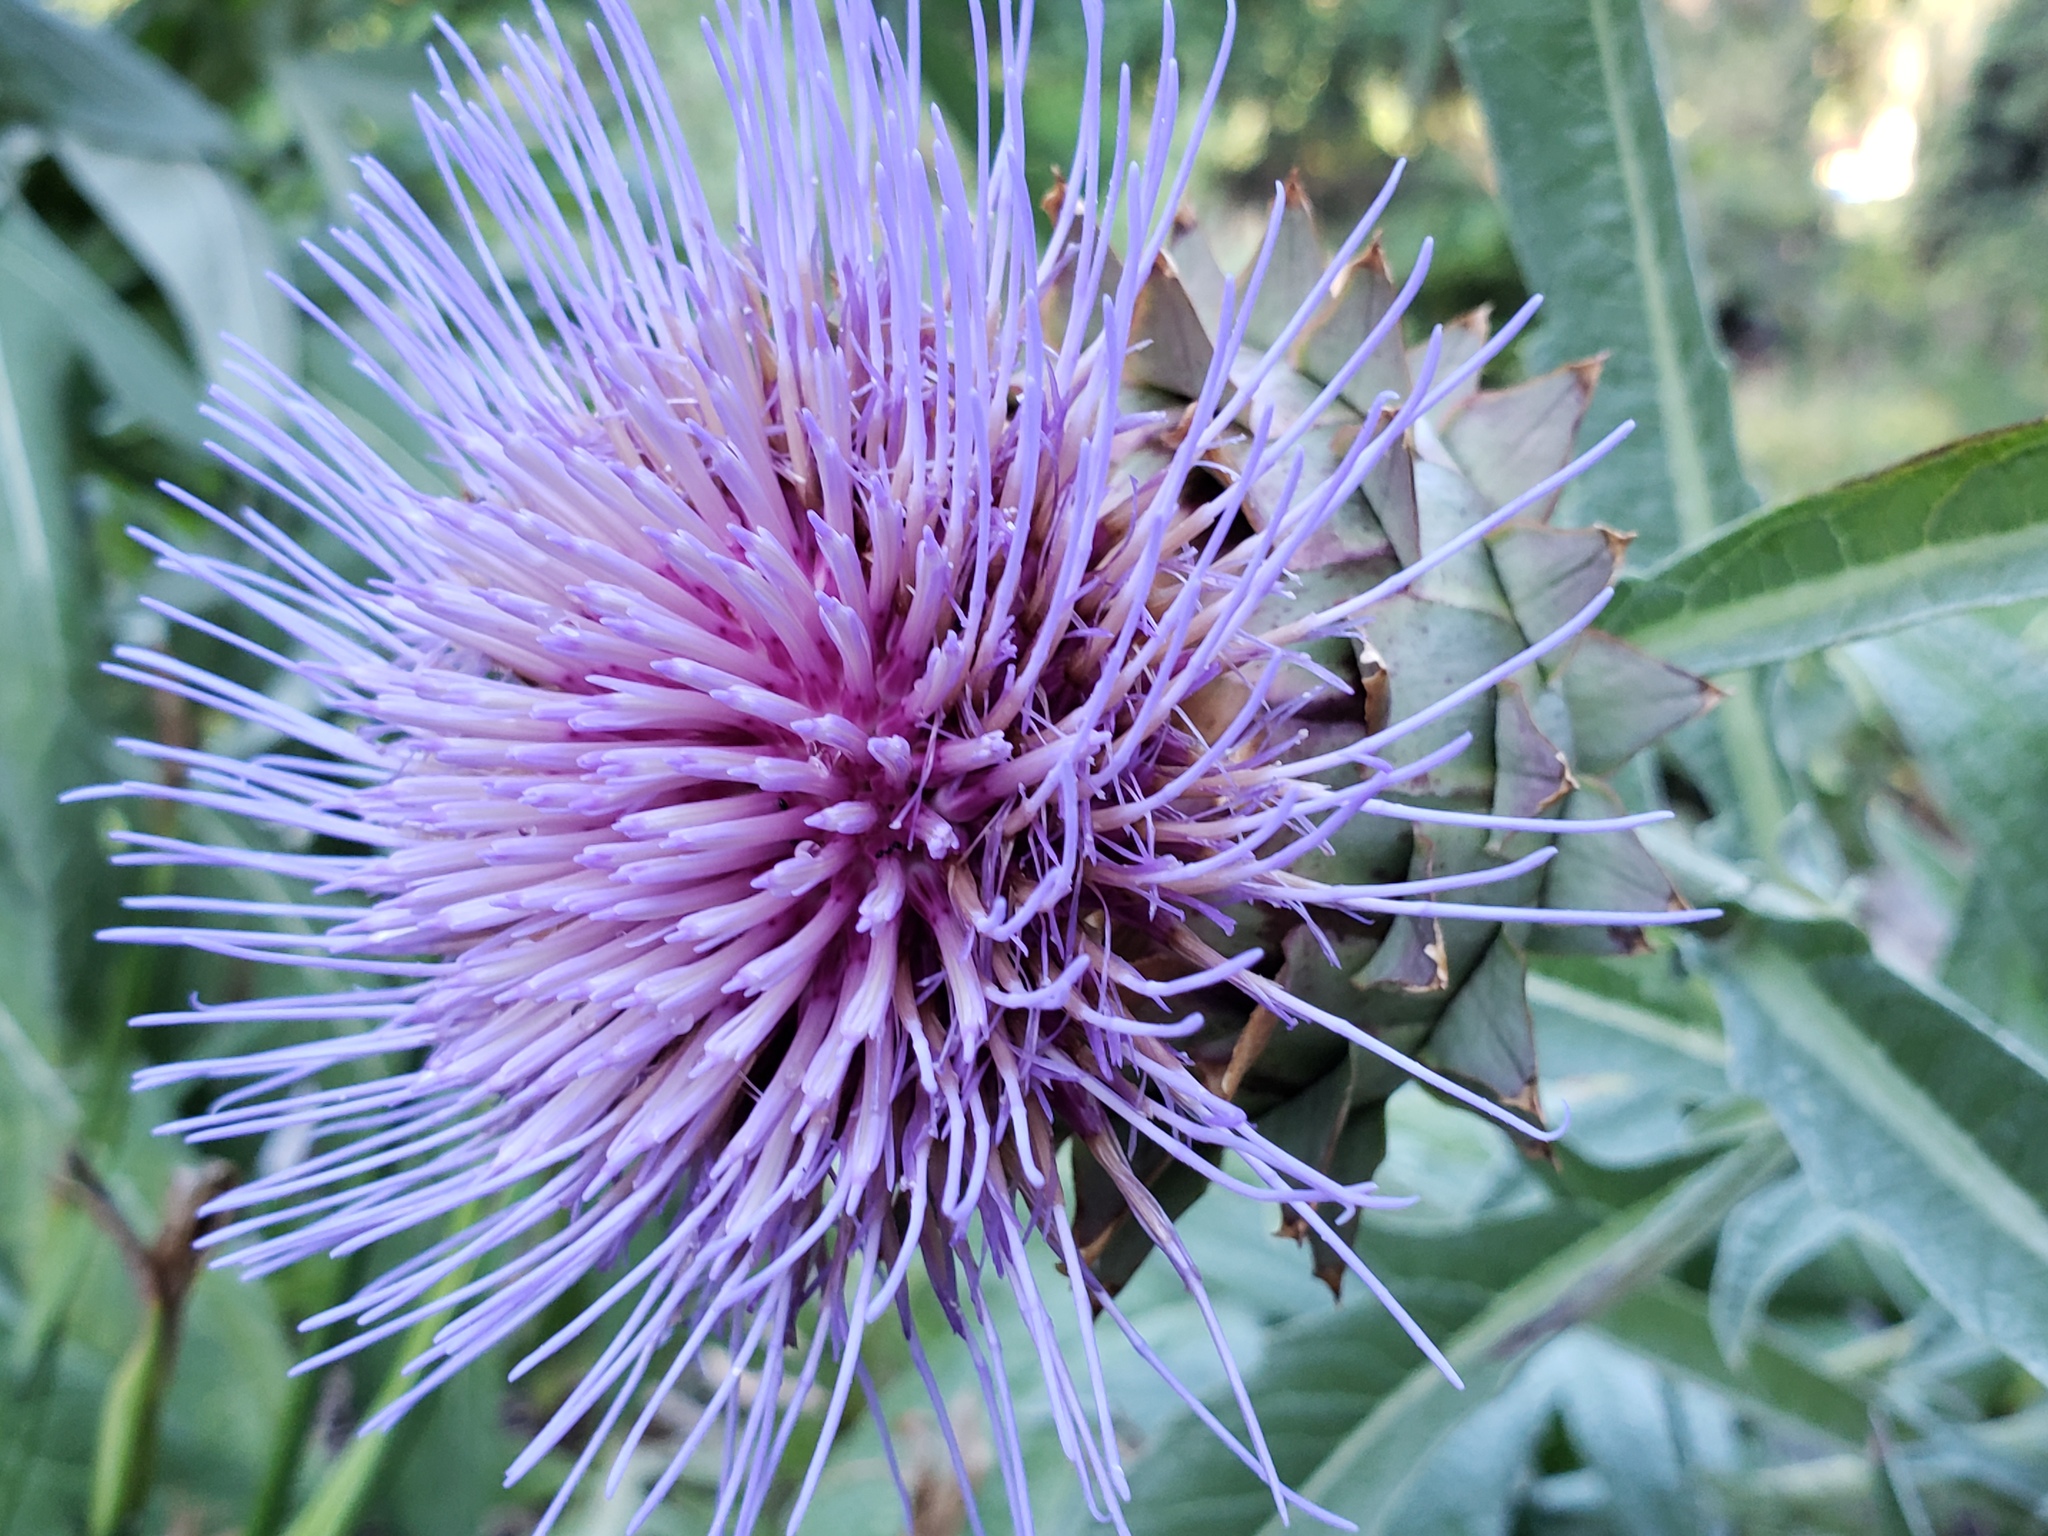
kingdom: Plantae
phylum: Tracheophyta
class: Magnoliopsida
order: Asterales
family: Asteraceae
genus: Cynara
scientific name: Cynara cardunculus
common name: Globe artichoke
